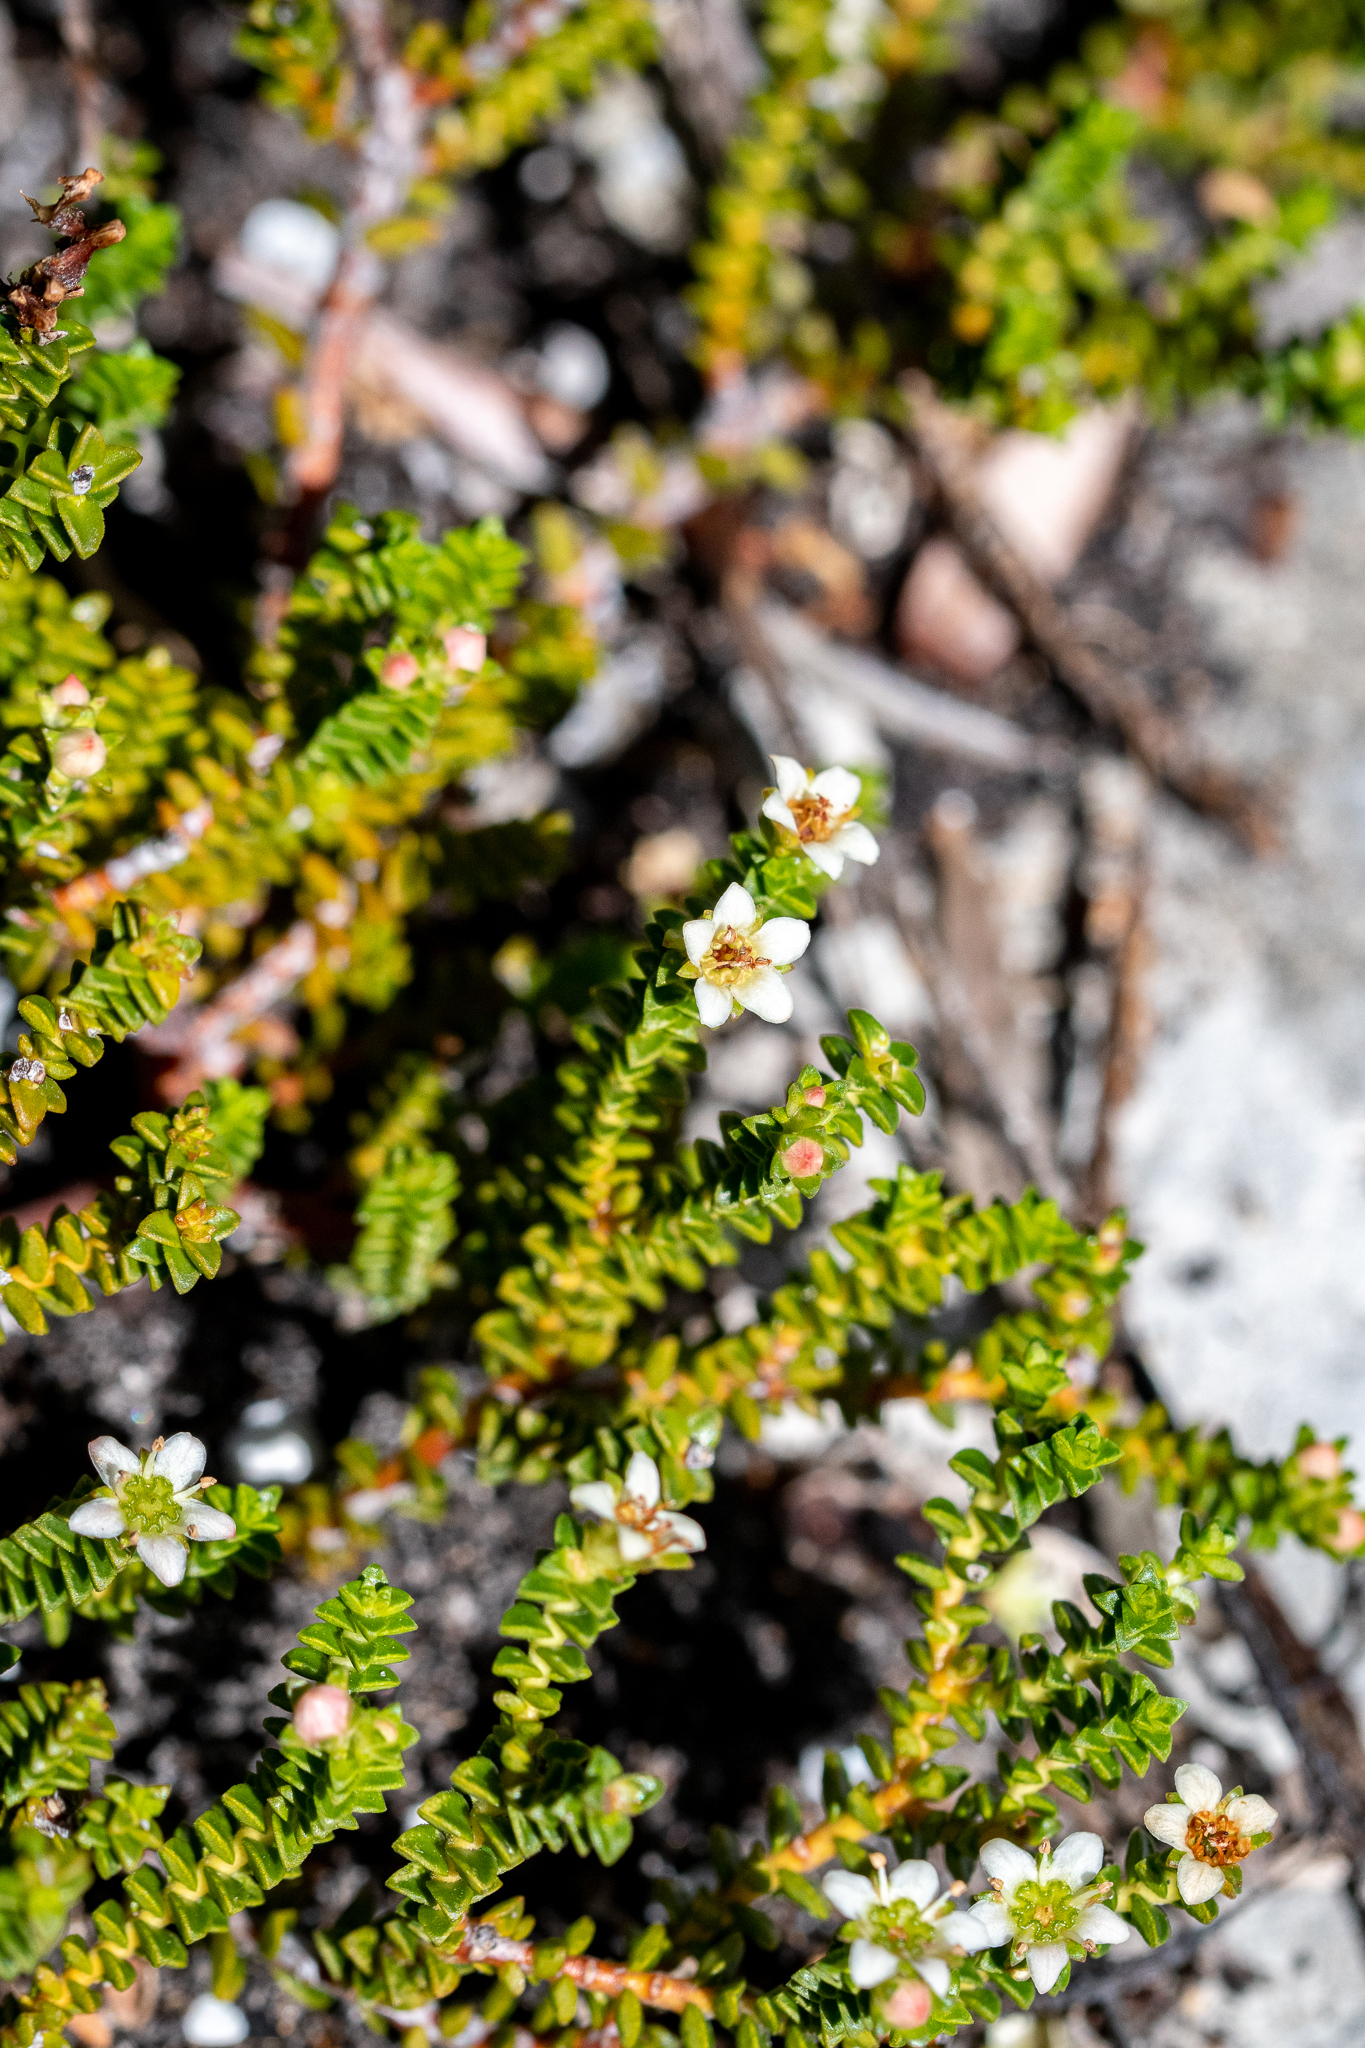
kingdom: Plantae
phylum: Tracheophyta
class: Magnoliopsida
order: Sapindales
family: Rutaceae
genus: Diosma
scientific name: Diosma haelkraalensis
